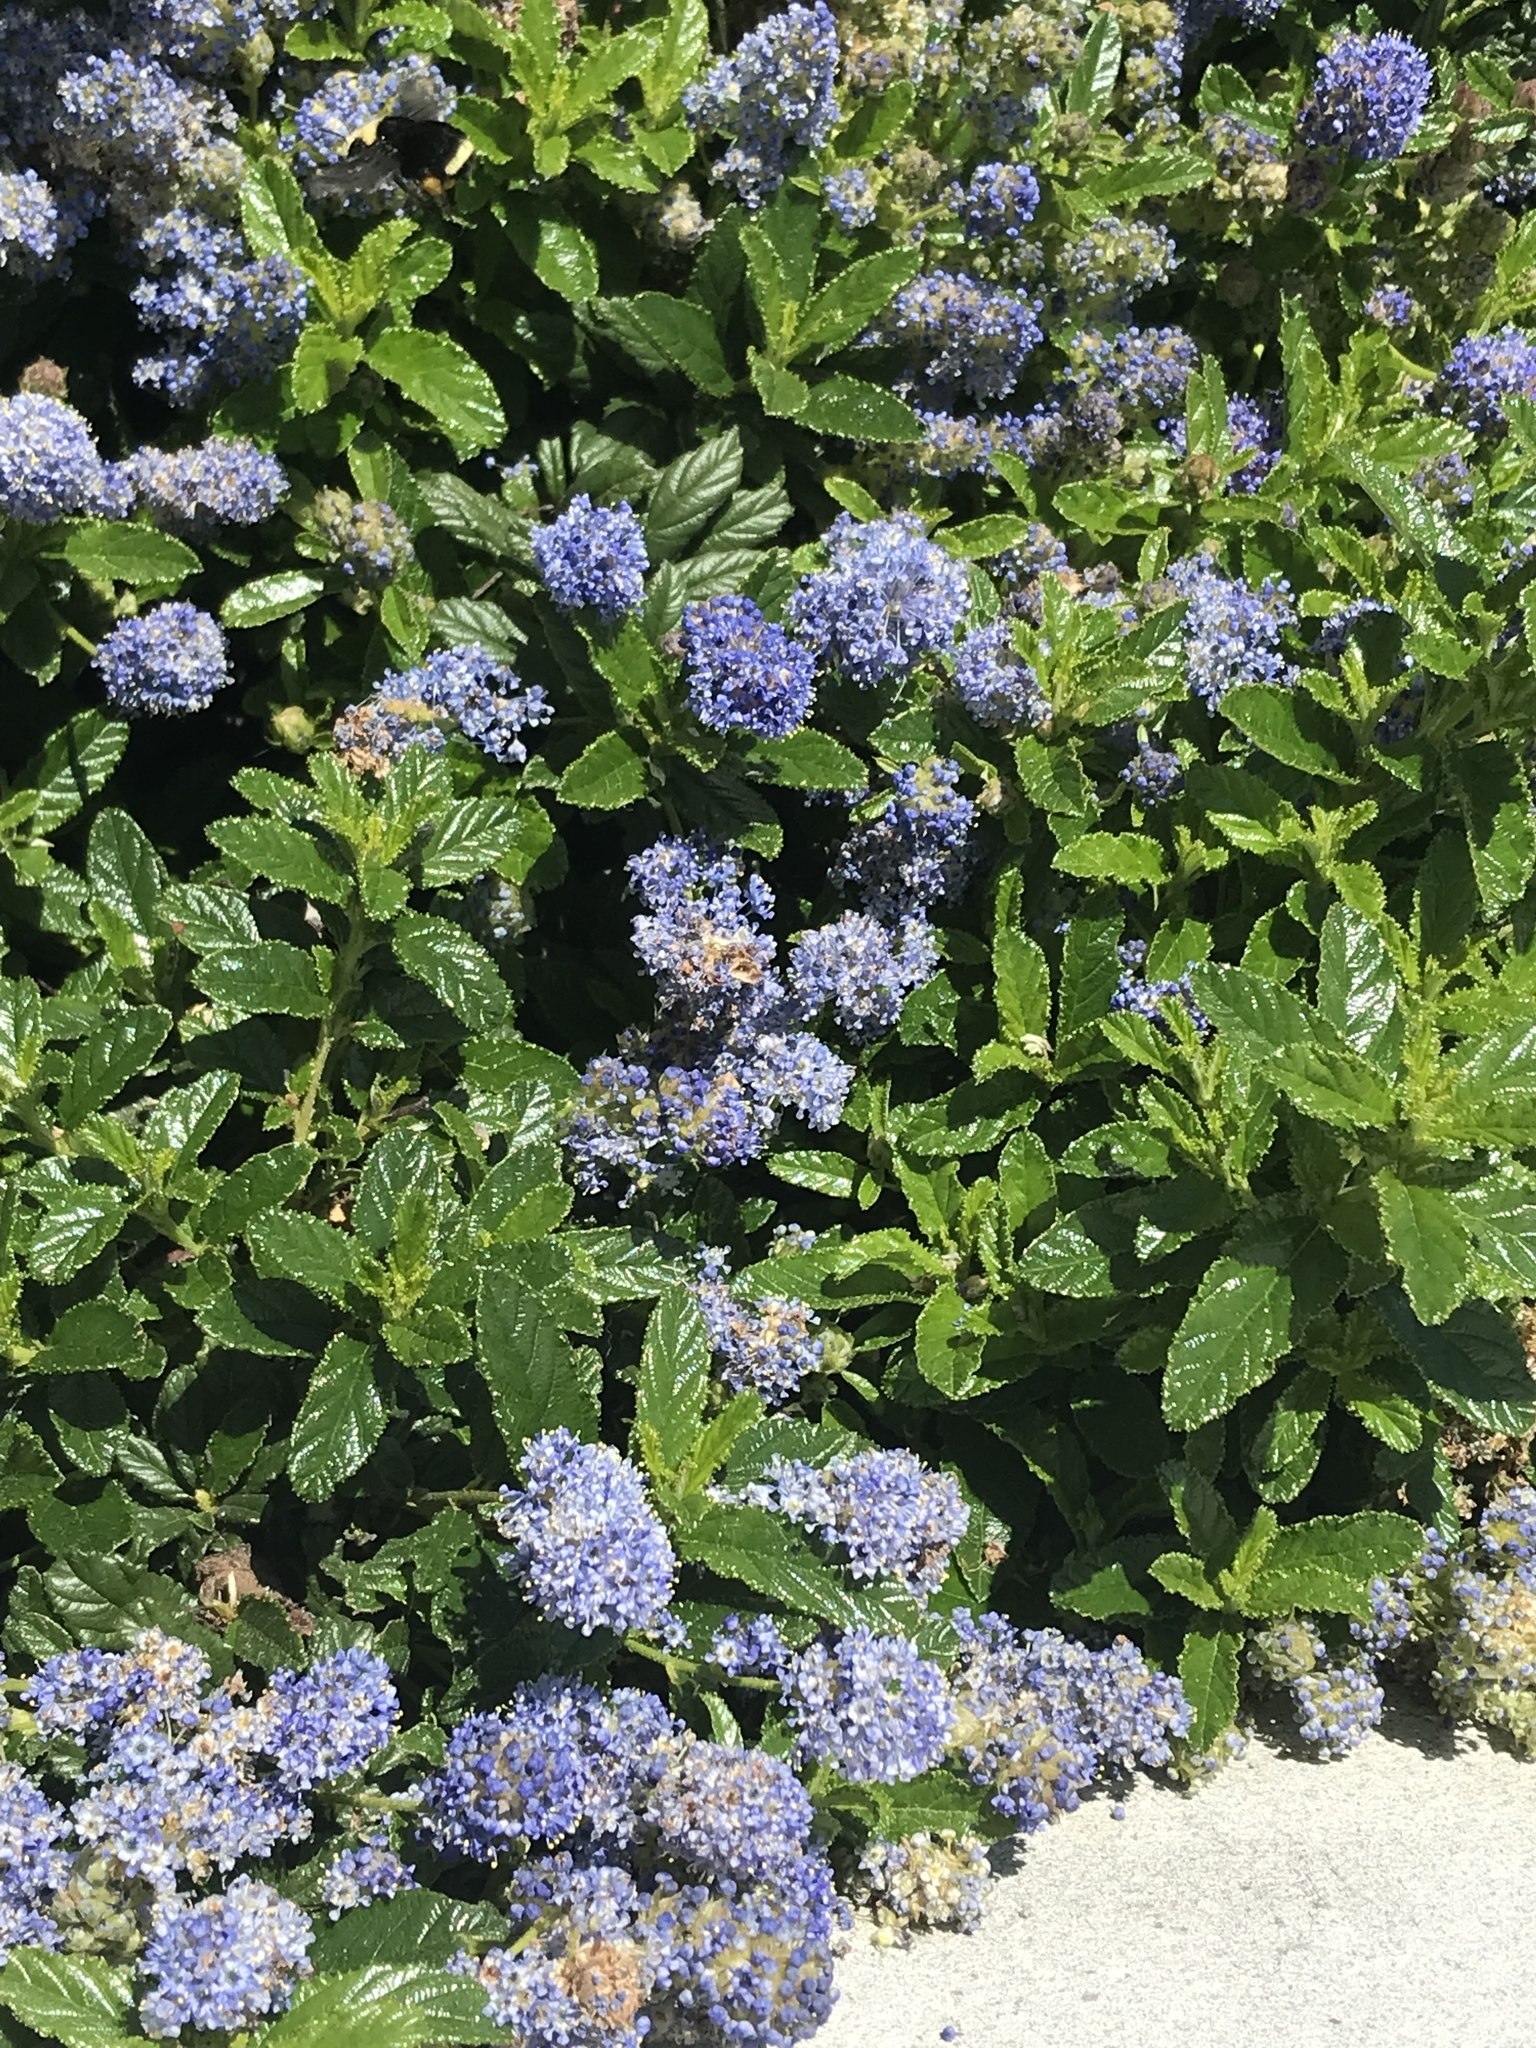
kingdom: Animalia
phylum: Arthropoda
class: Insecta
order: Hymenoptera
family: Apidae
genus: Apis
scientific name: Apis mellifera
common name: Honey bee
